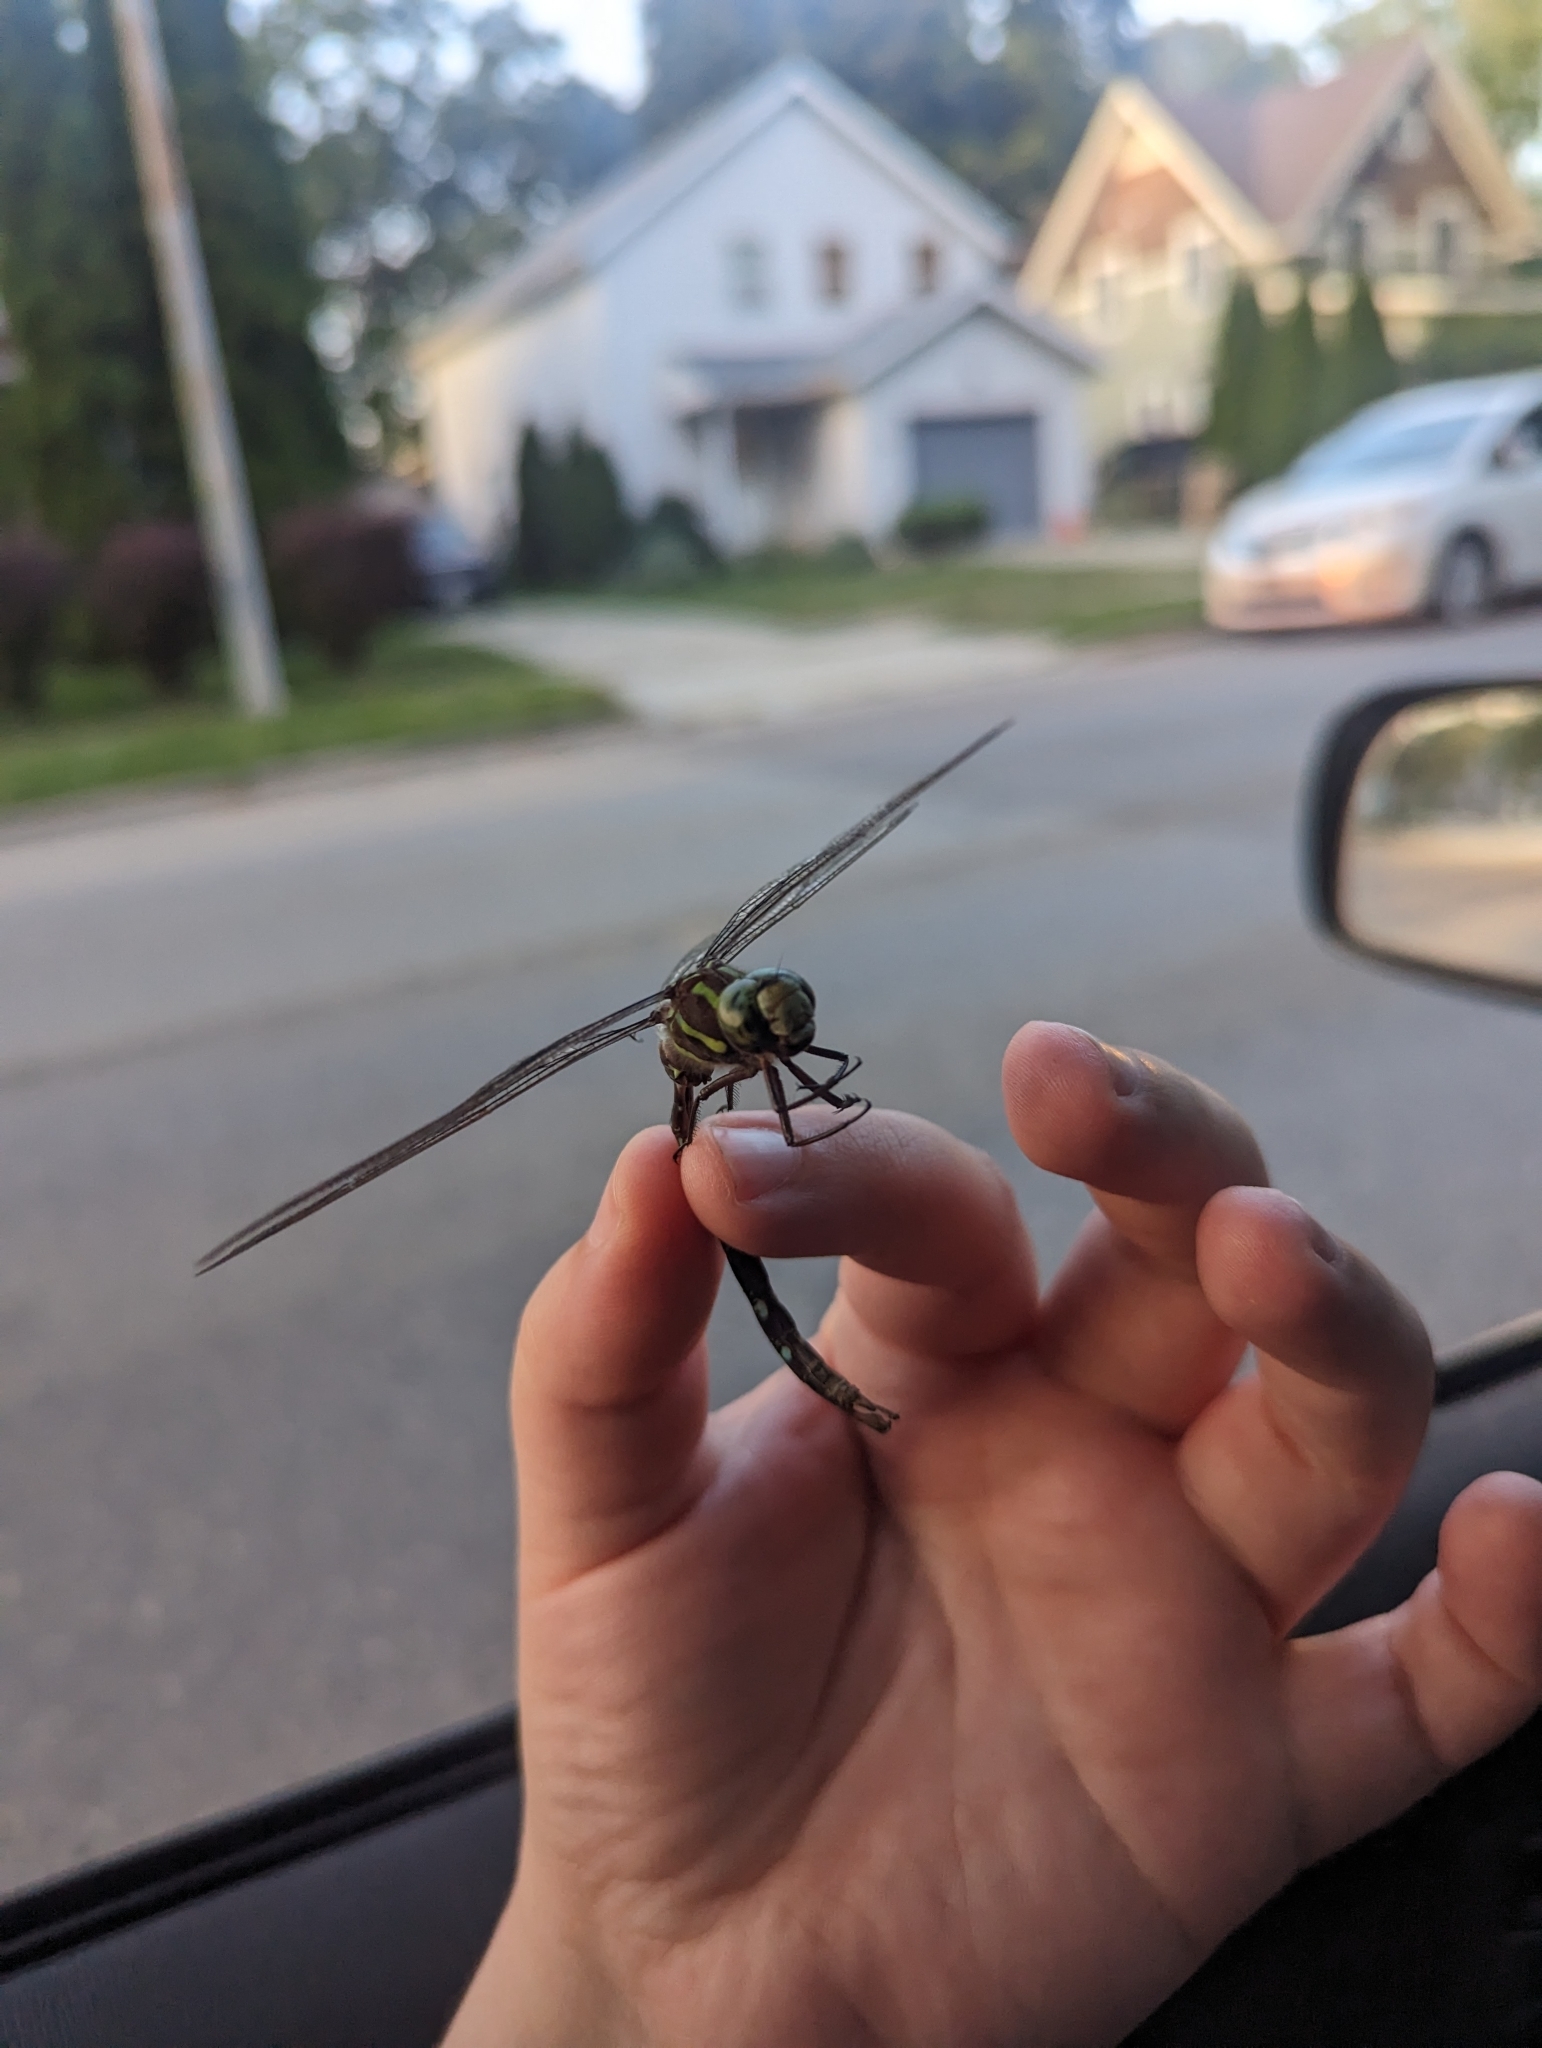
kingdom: Animalia
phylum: Arthropoda
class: Insecta
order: Odonata
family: Aeshnidae
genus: Aeshna
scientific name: Aeshna umbrosa
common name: Shadow darner
